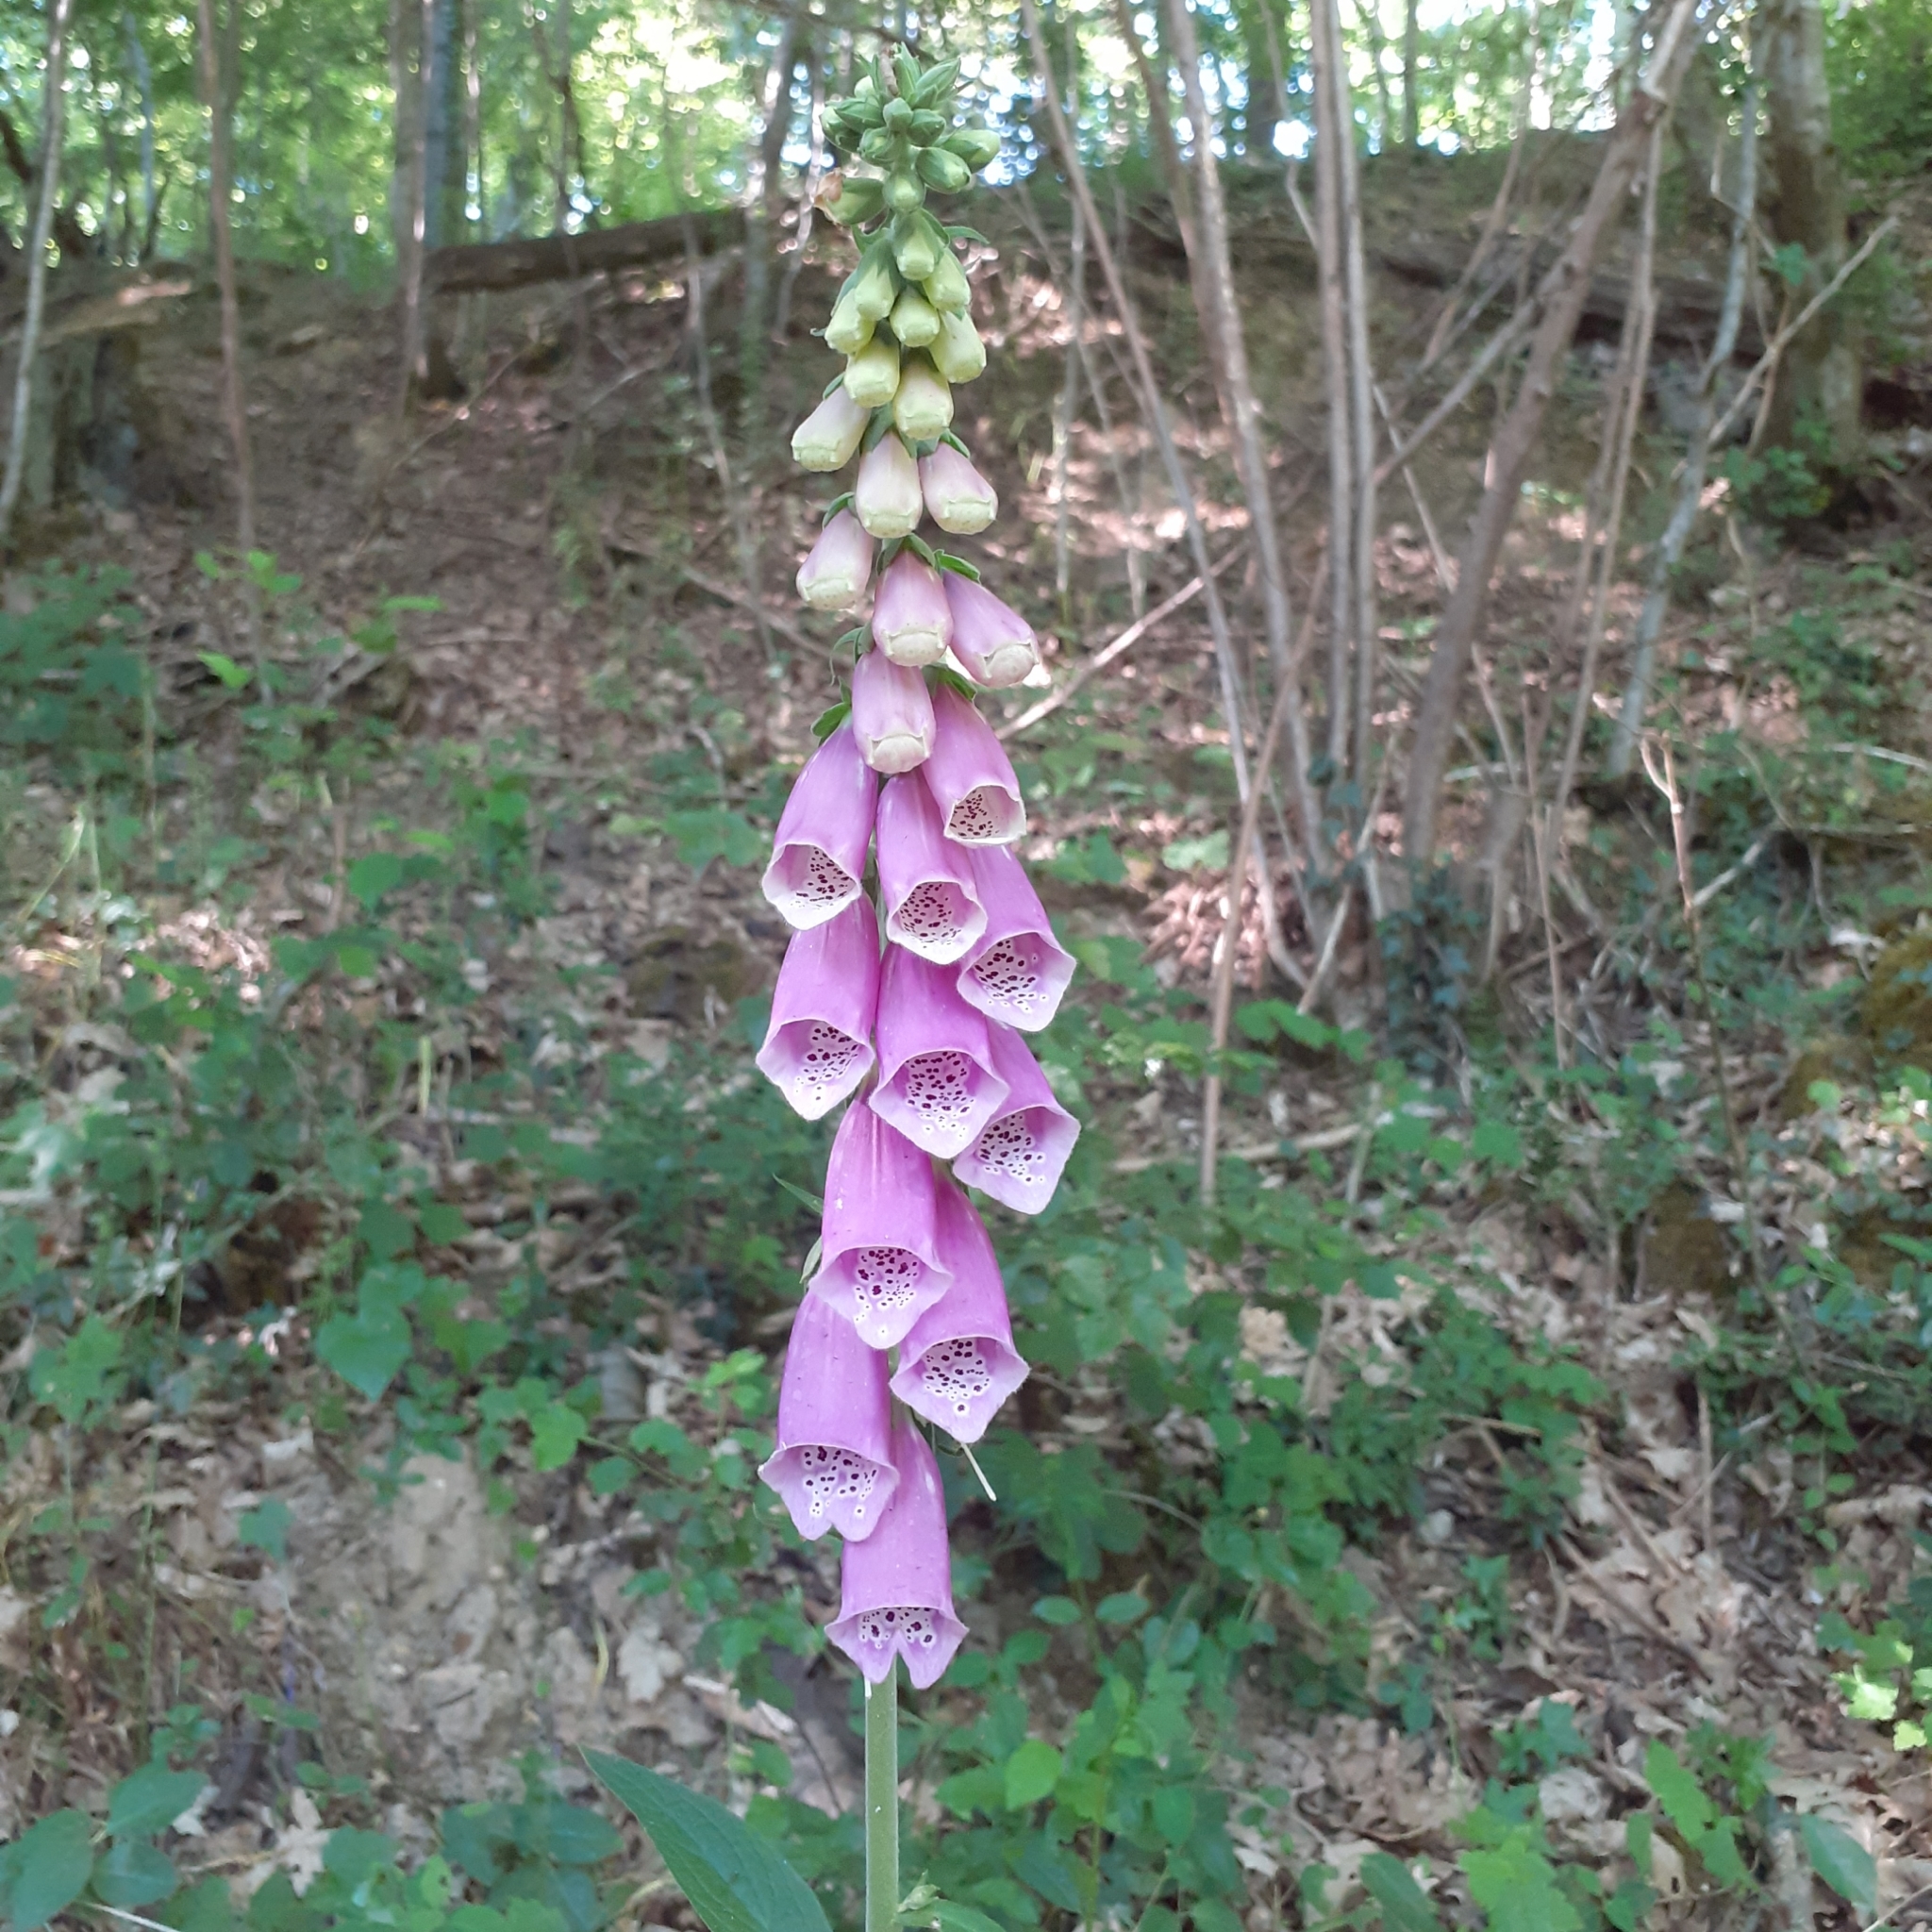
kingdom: Plantae
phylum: Tracheophyta
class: Magnoliopsida
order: Lamiales
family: Plantaginaceae
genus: Digitalis
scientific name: Digitalis purpurea
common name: Foxglove
